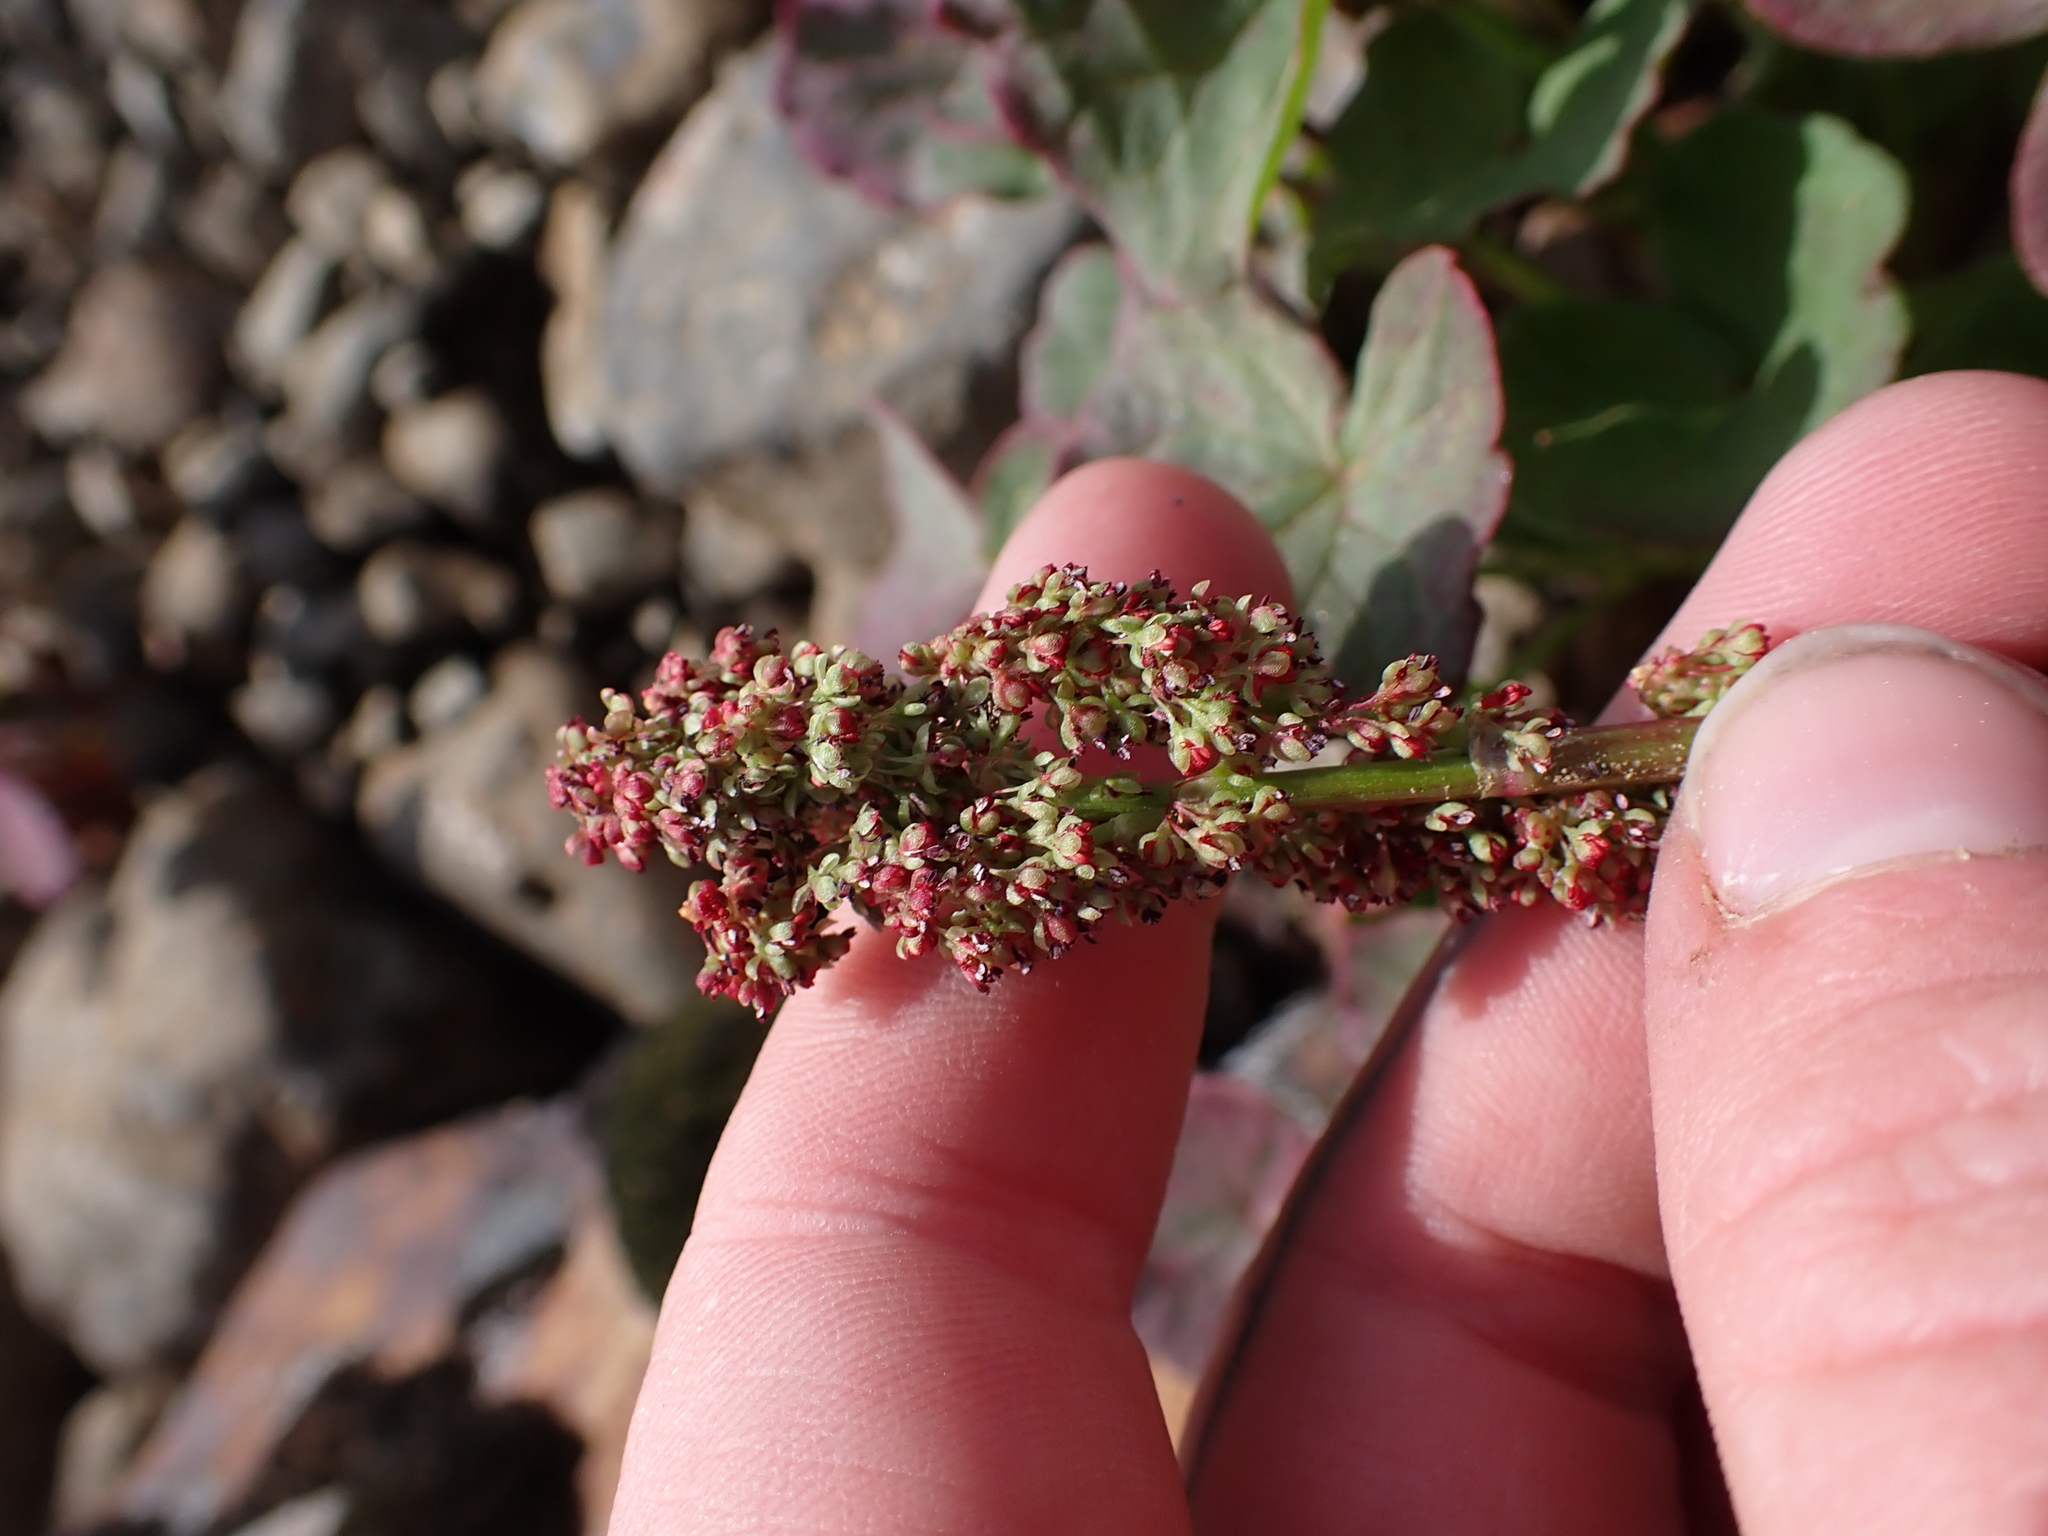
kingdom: Plantae
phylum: Tracheophyta
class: Magnoliopsida
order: Caryophyllales
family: Polygonaceae
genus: Oxyria
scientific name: Oxyria digyna
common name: Alpine mountain-sorrel
